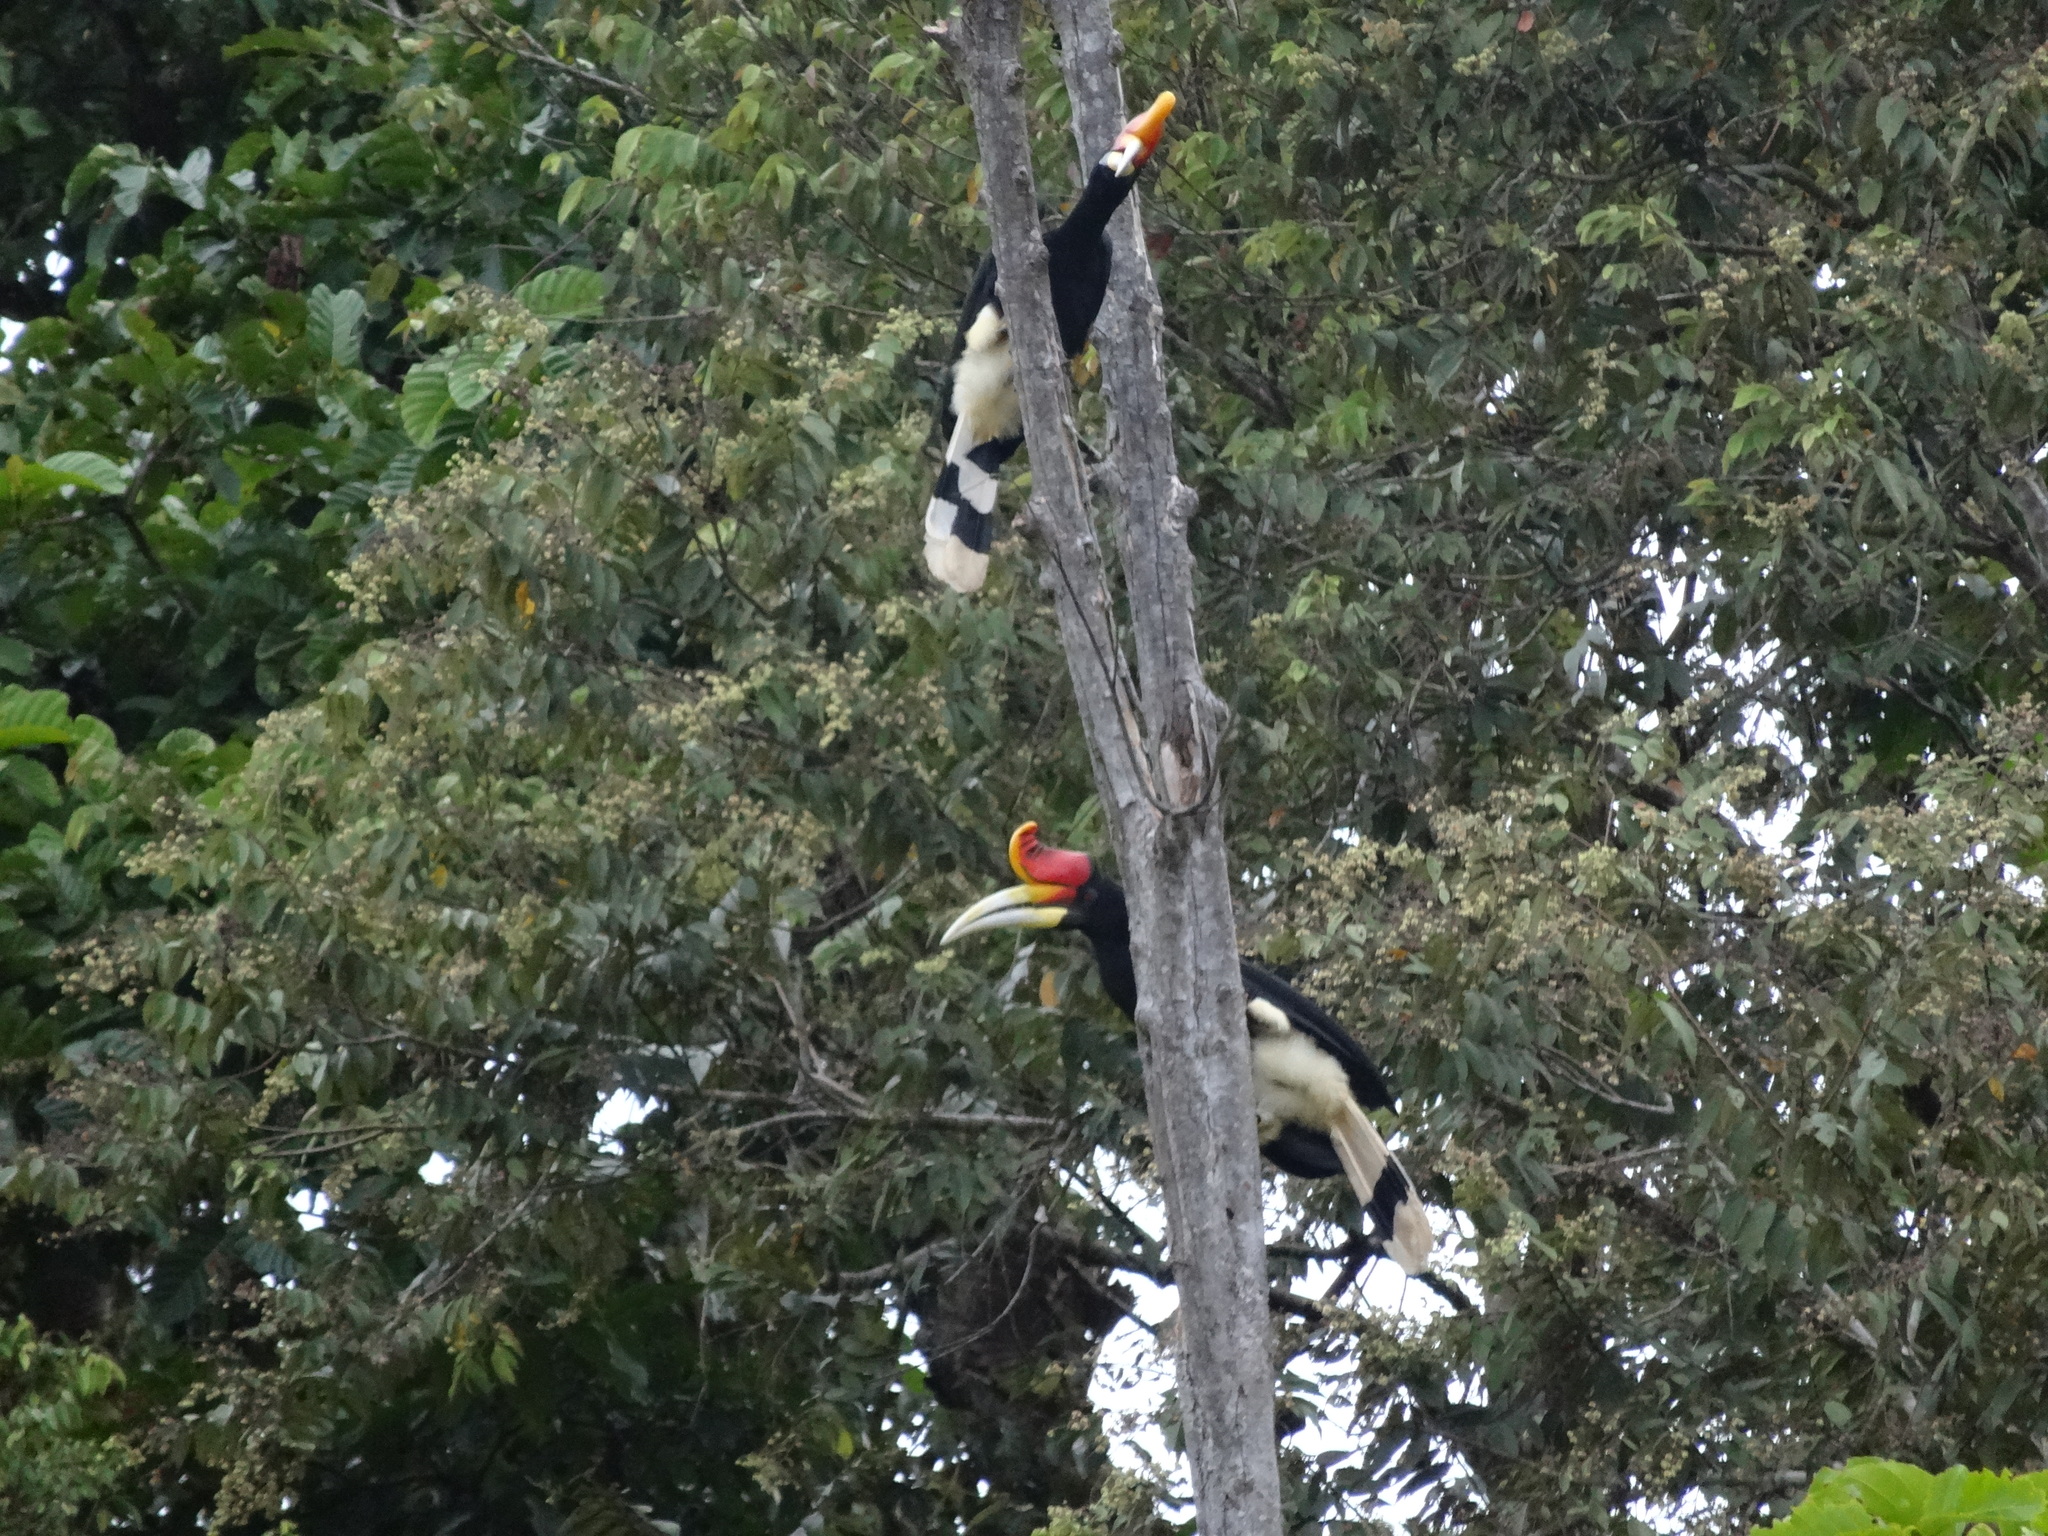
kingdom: Animalia
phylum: Chordata
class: Aves
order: Bucerotiformes
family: Bucerotidae
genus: Buceros
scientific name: Buceros rhinoceros
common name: Rhinoceros hornbill
